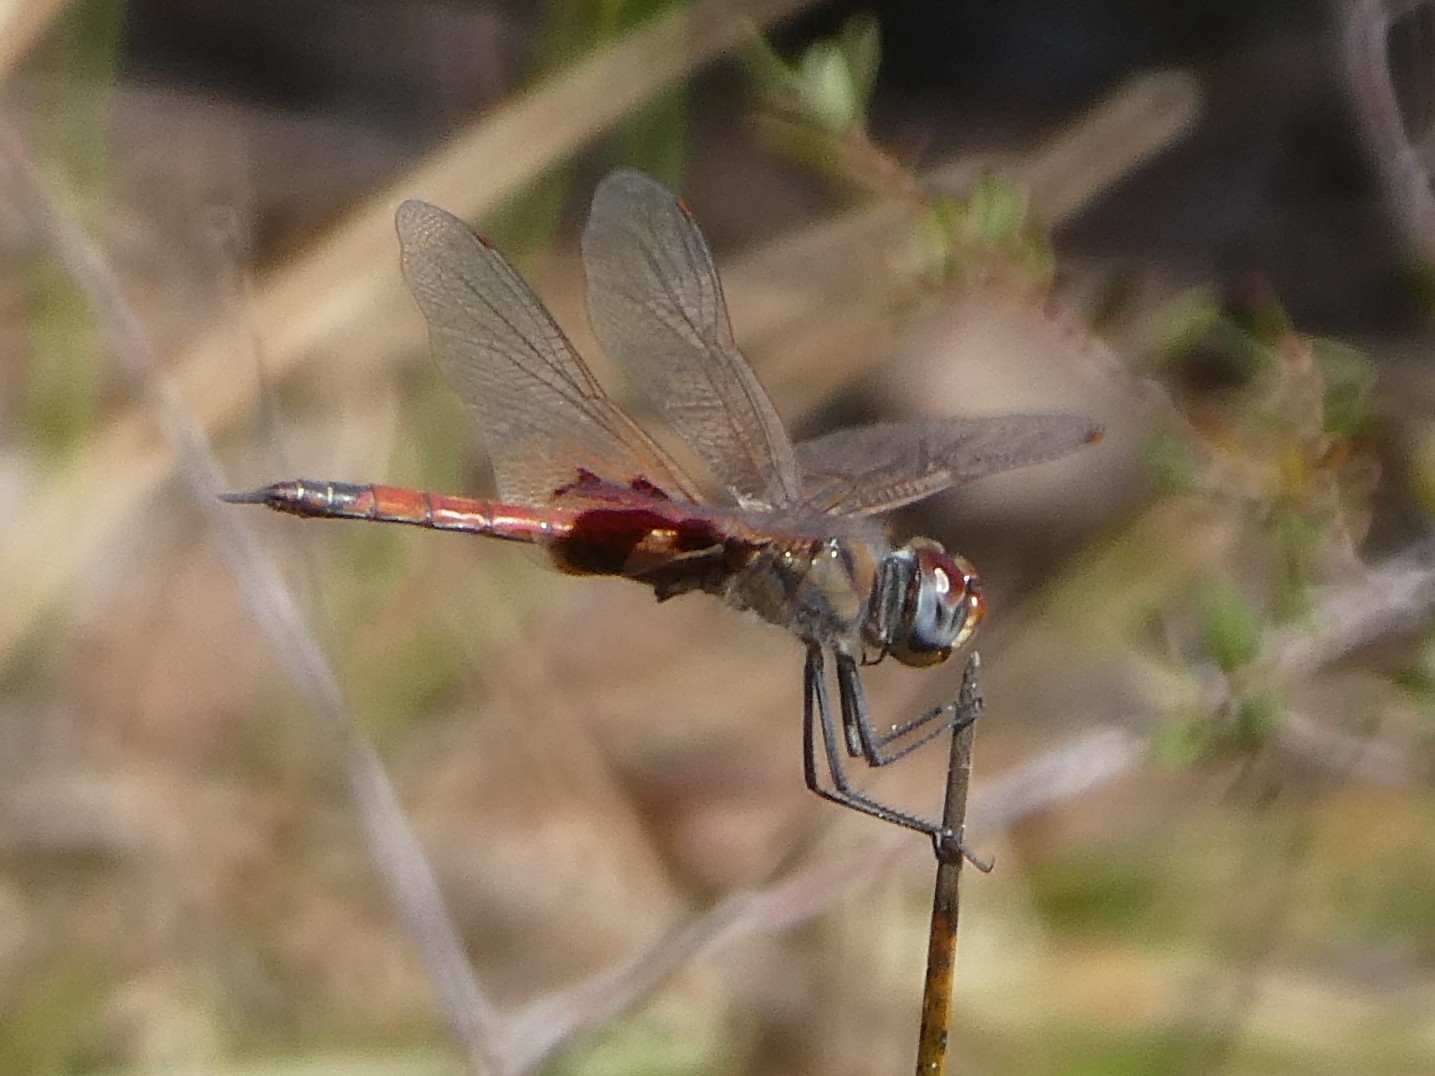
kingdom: Animalia
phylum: Arthropoda
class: Insecta
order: Odonata
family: Libellulidae
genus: Tramea
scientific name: Tramea loewii
